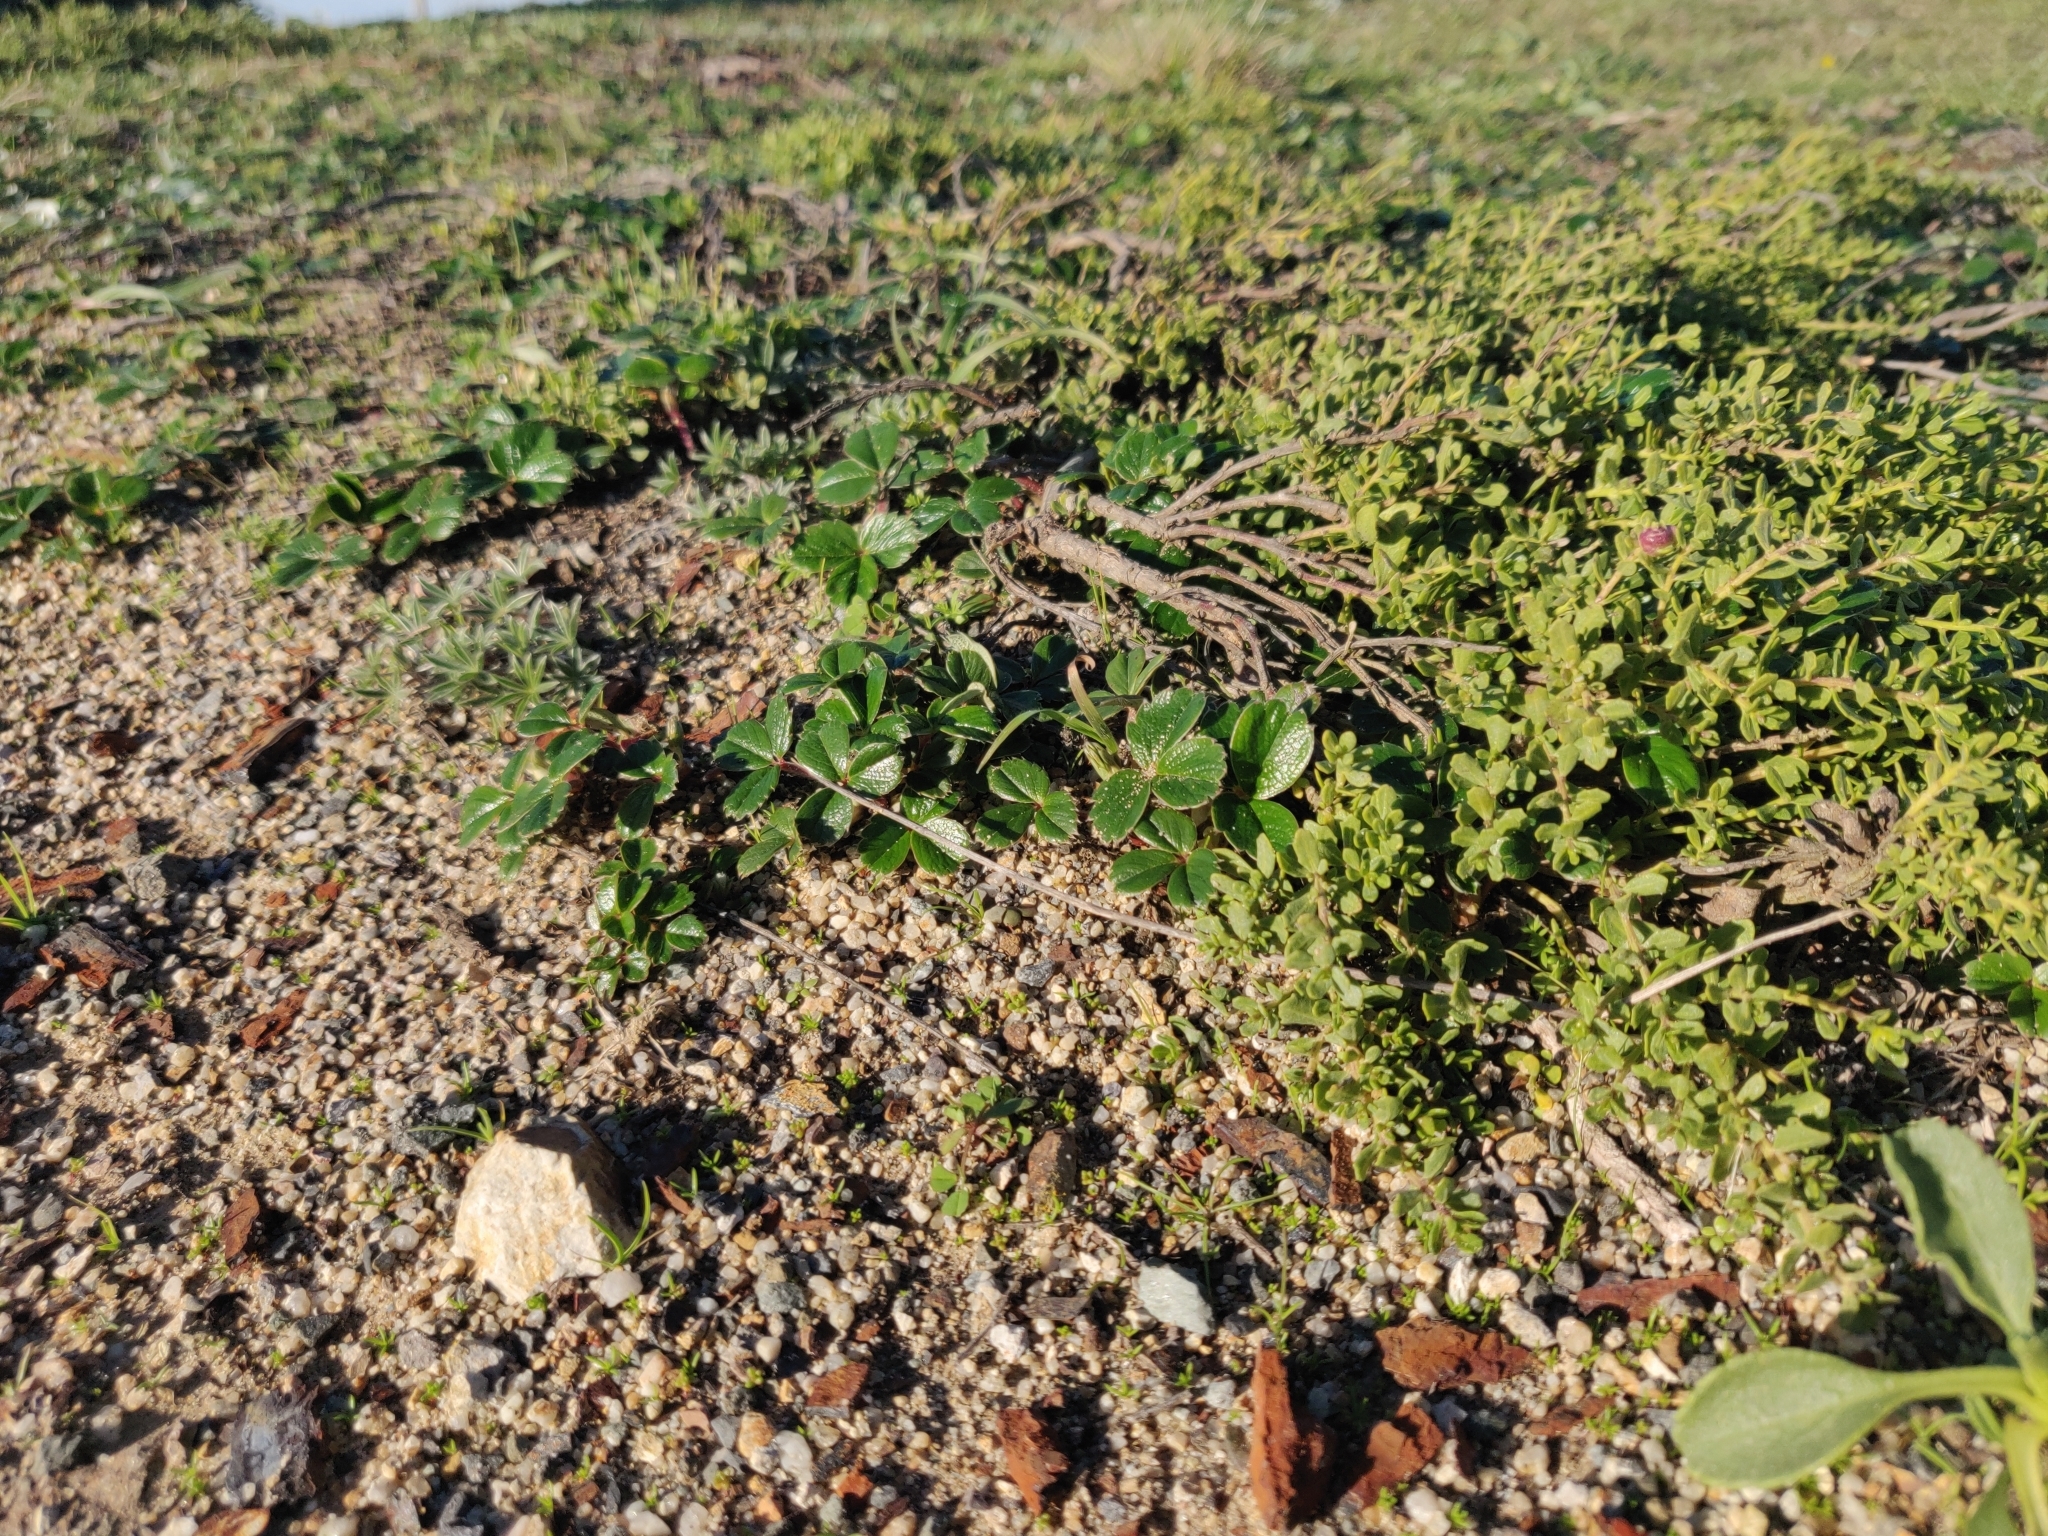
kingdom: Plantae
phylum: Tracheophyta
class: Magnoliopsida
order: Rosales
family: Rosaceae
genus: Fragaria
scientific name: Fragaria chiloensis
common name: Beach strawberry
